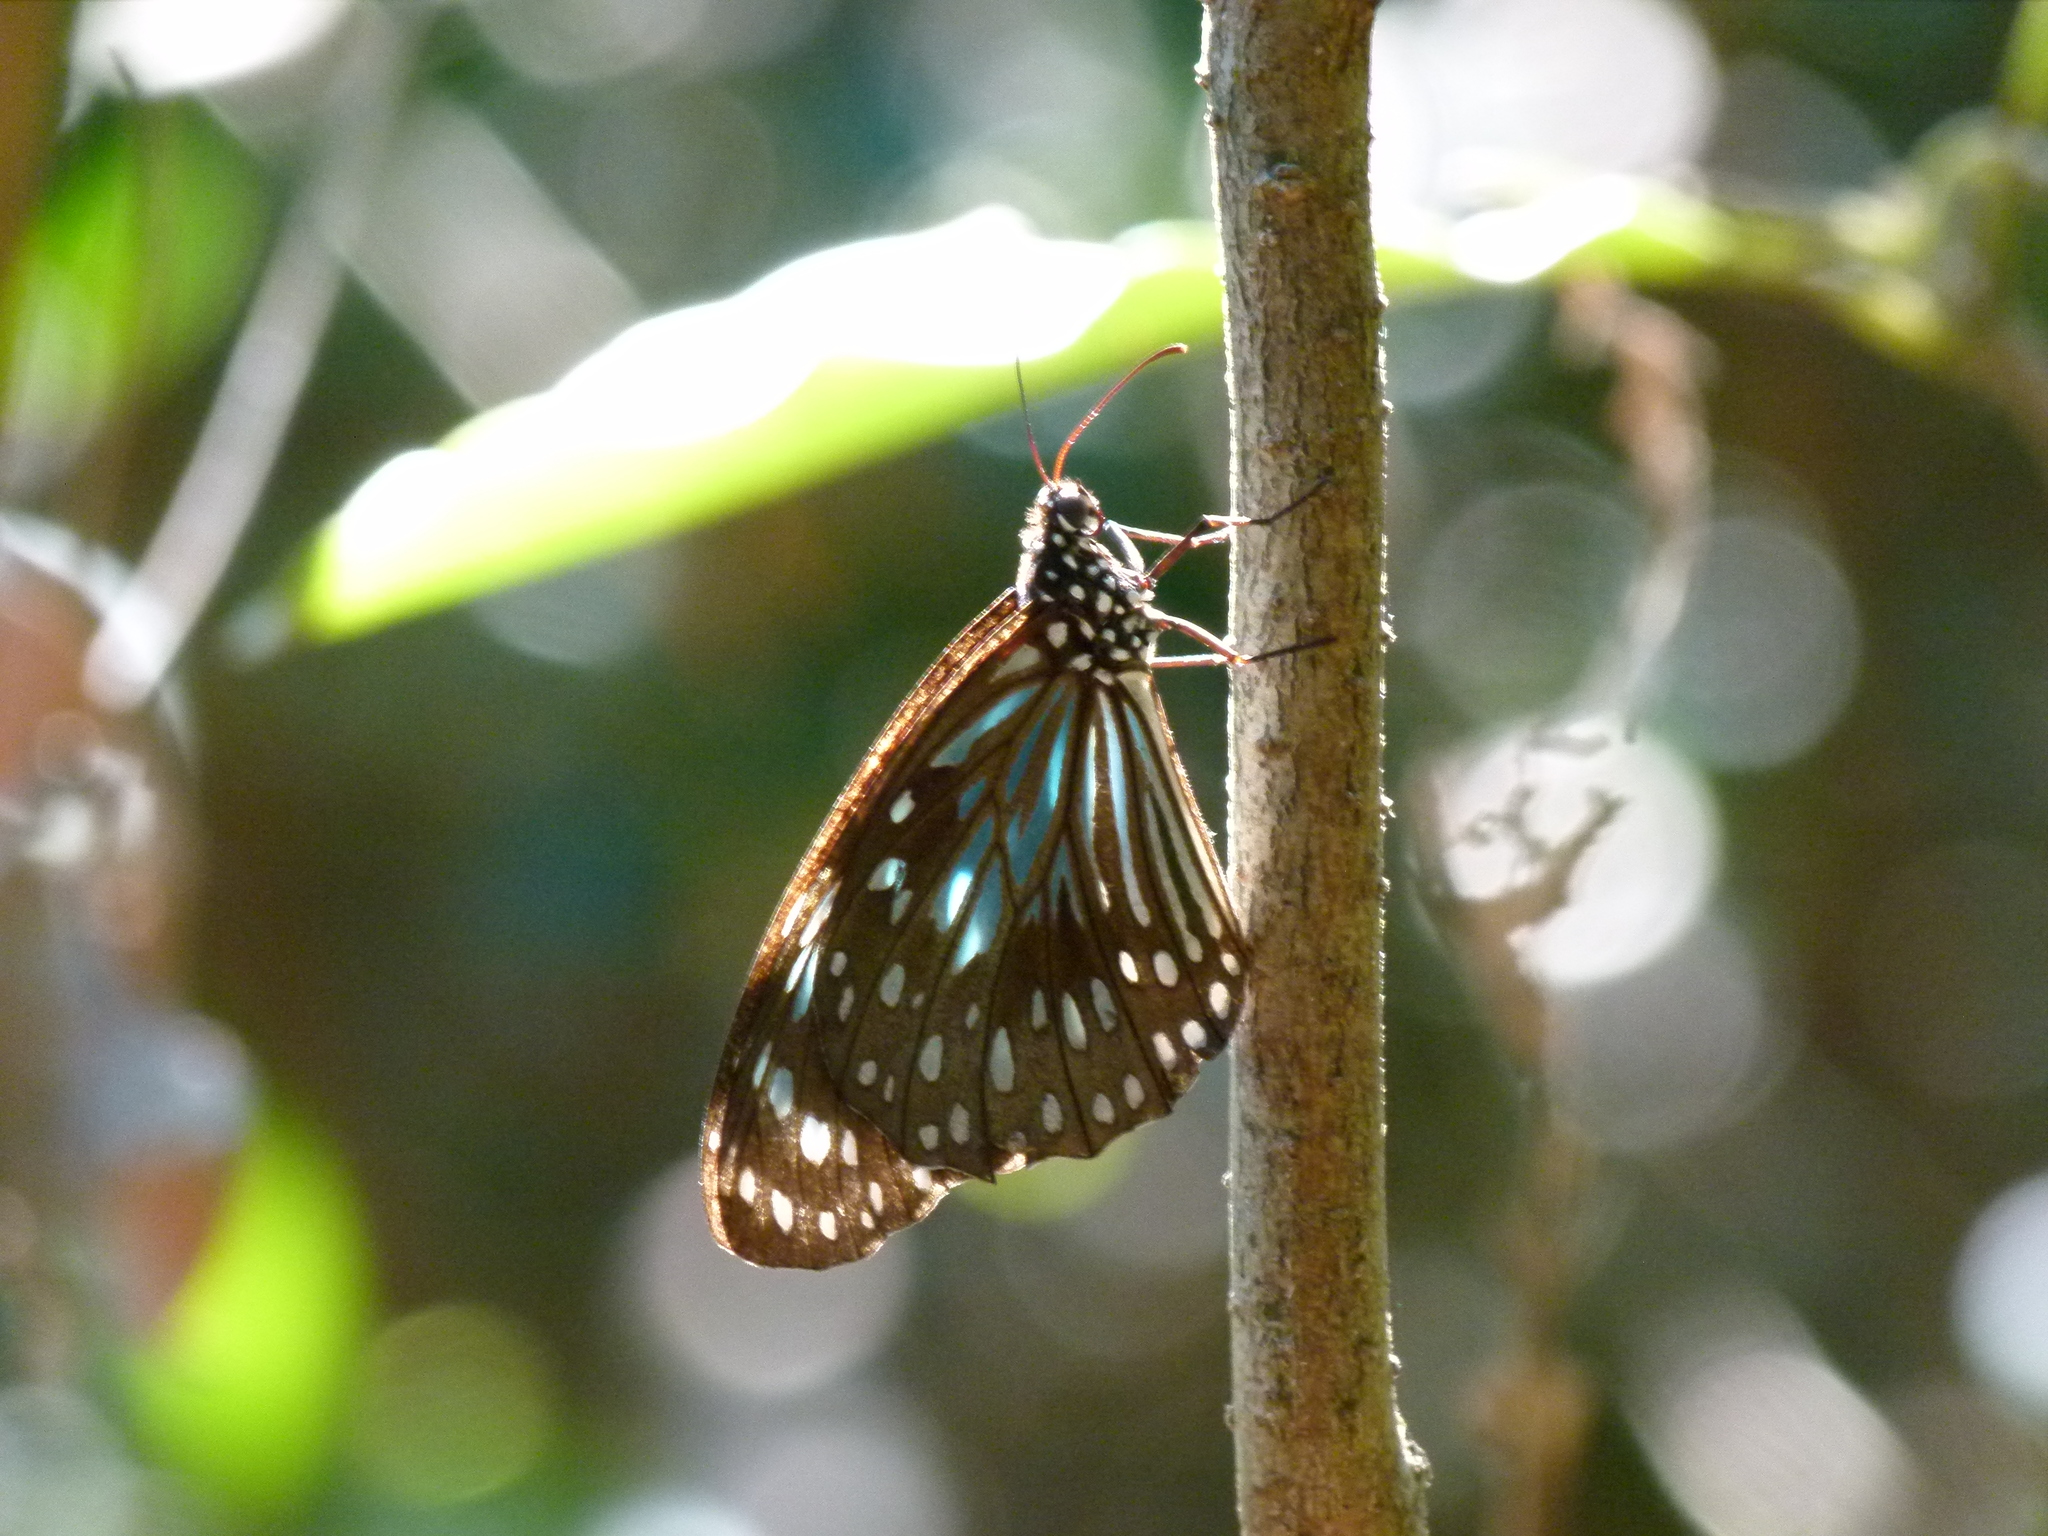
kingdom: Animalia
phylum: Arthropoda
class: Insecta
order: Lepidoptera
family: Nymphalidae
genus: Tirumala
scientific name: Tirumala hamata
